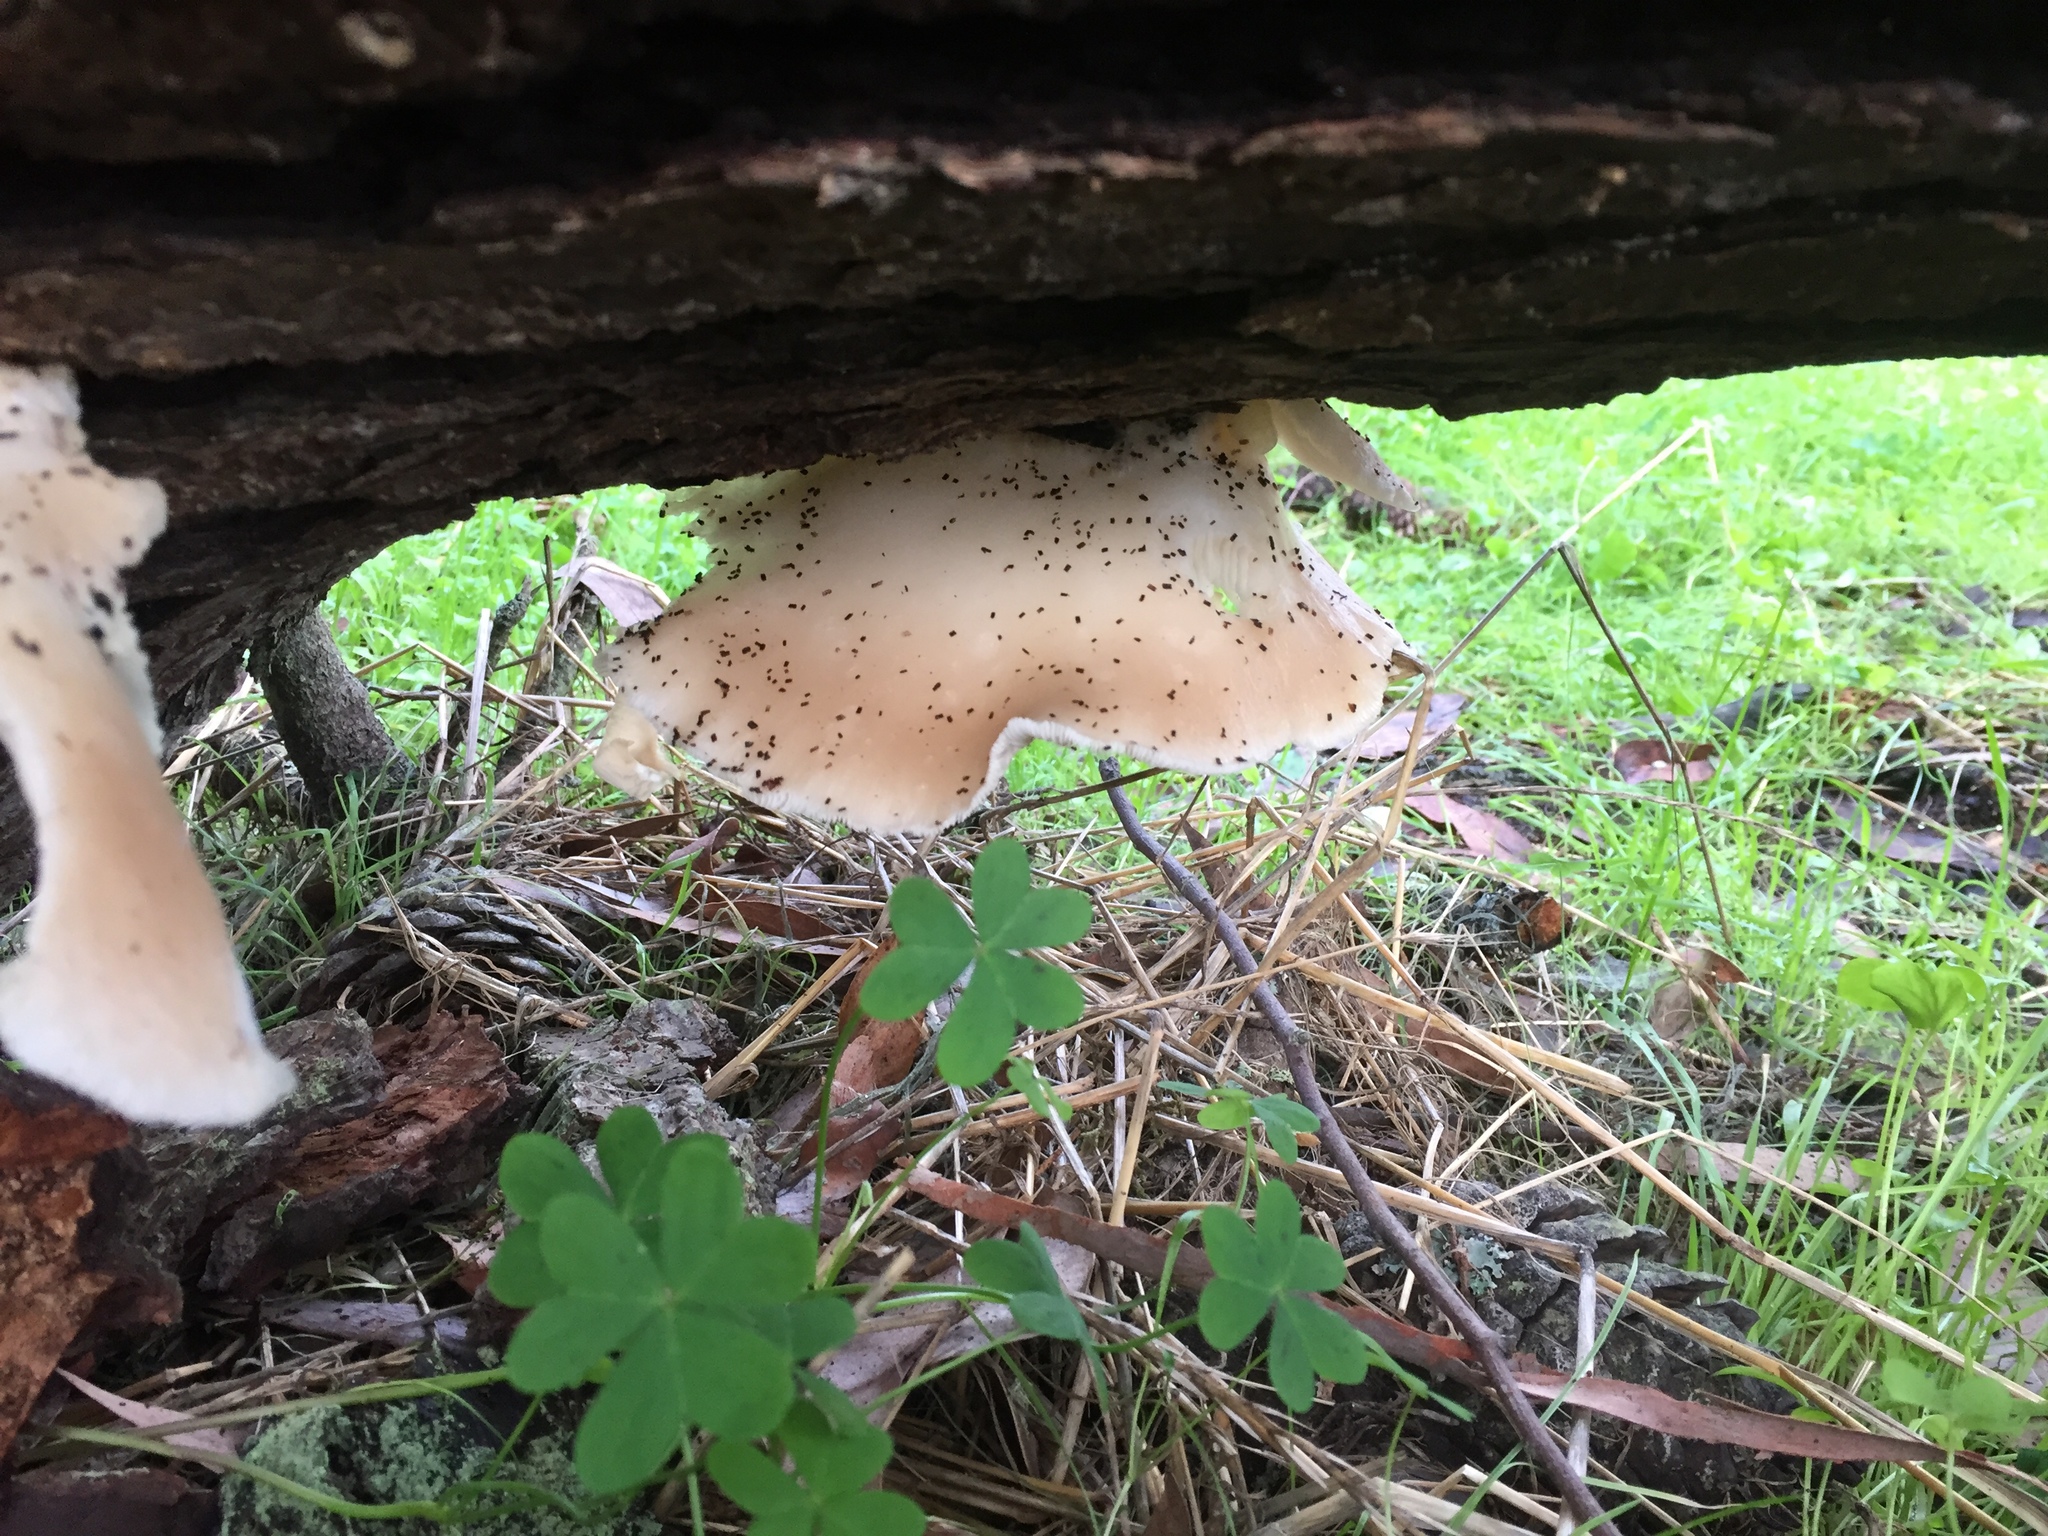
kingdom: Fungi
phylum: Basidiomycota
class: Agaricomycetes
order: Agaricales
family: Pleurotaceae
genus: Pleurotus
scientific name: Pleurotus ostreatus
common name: Oyster mushroom
